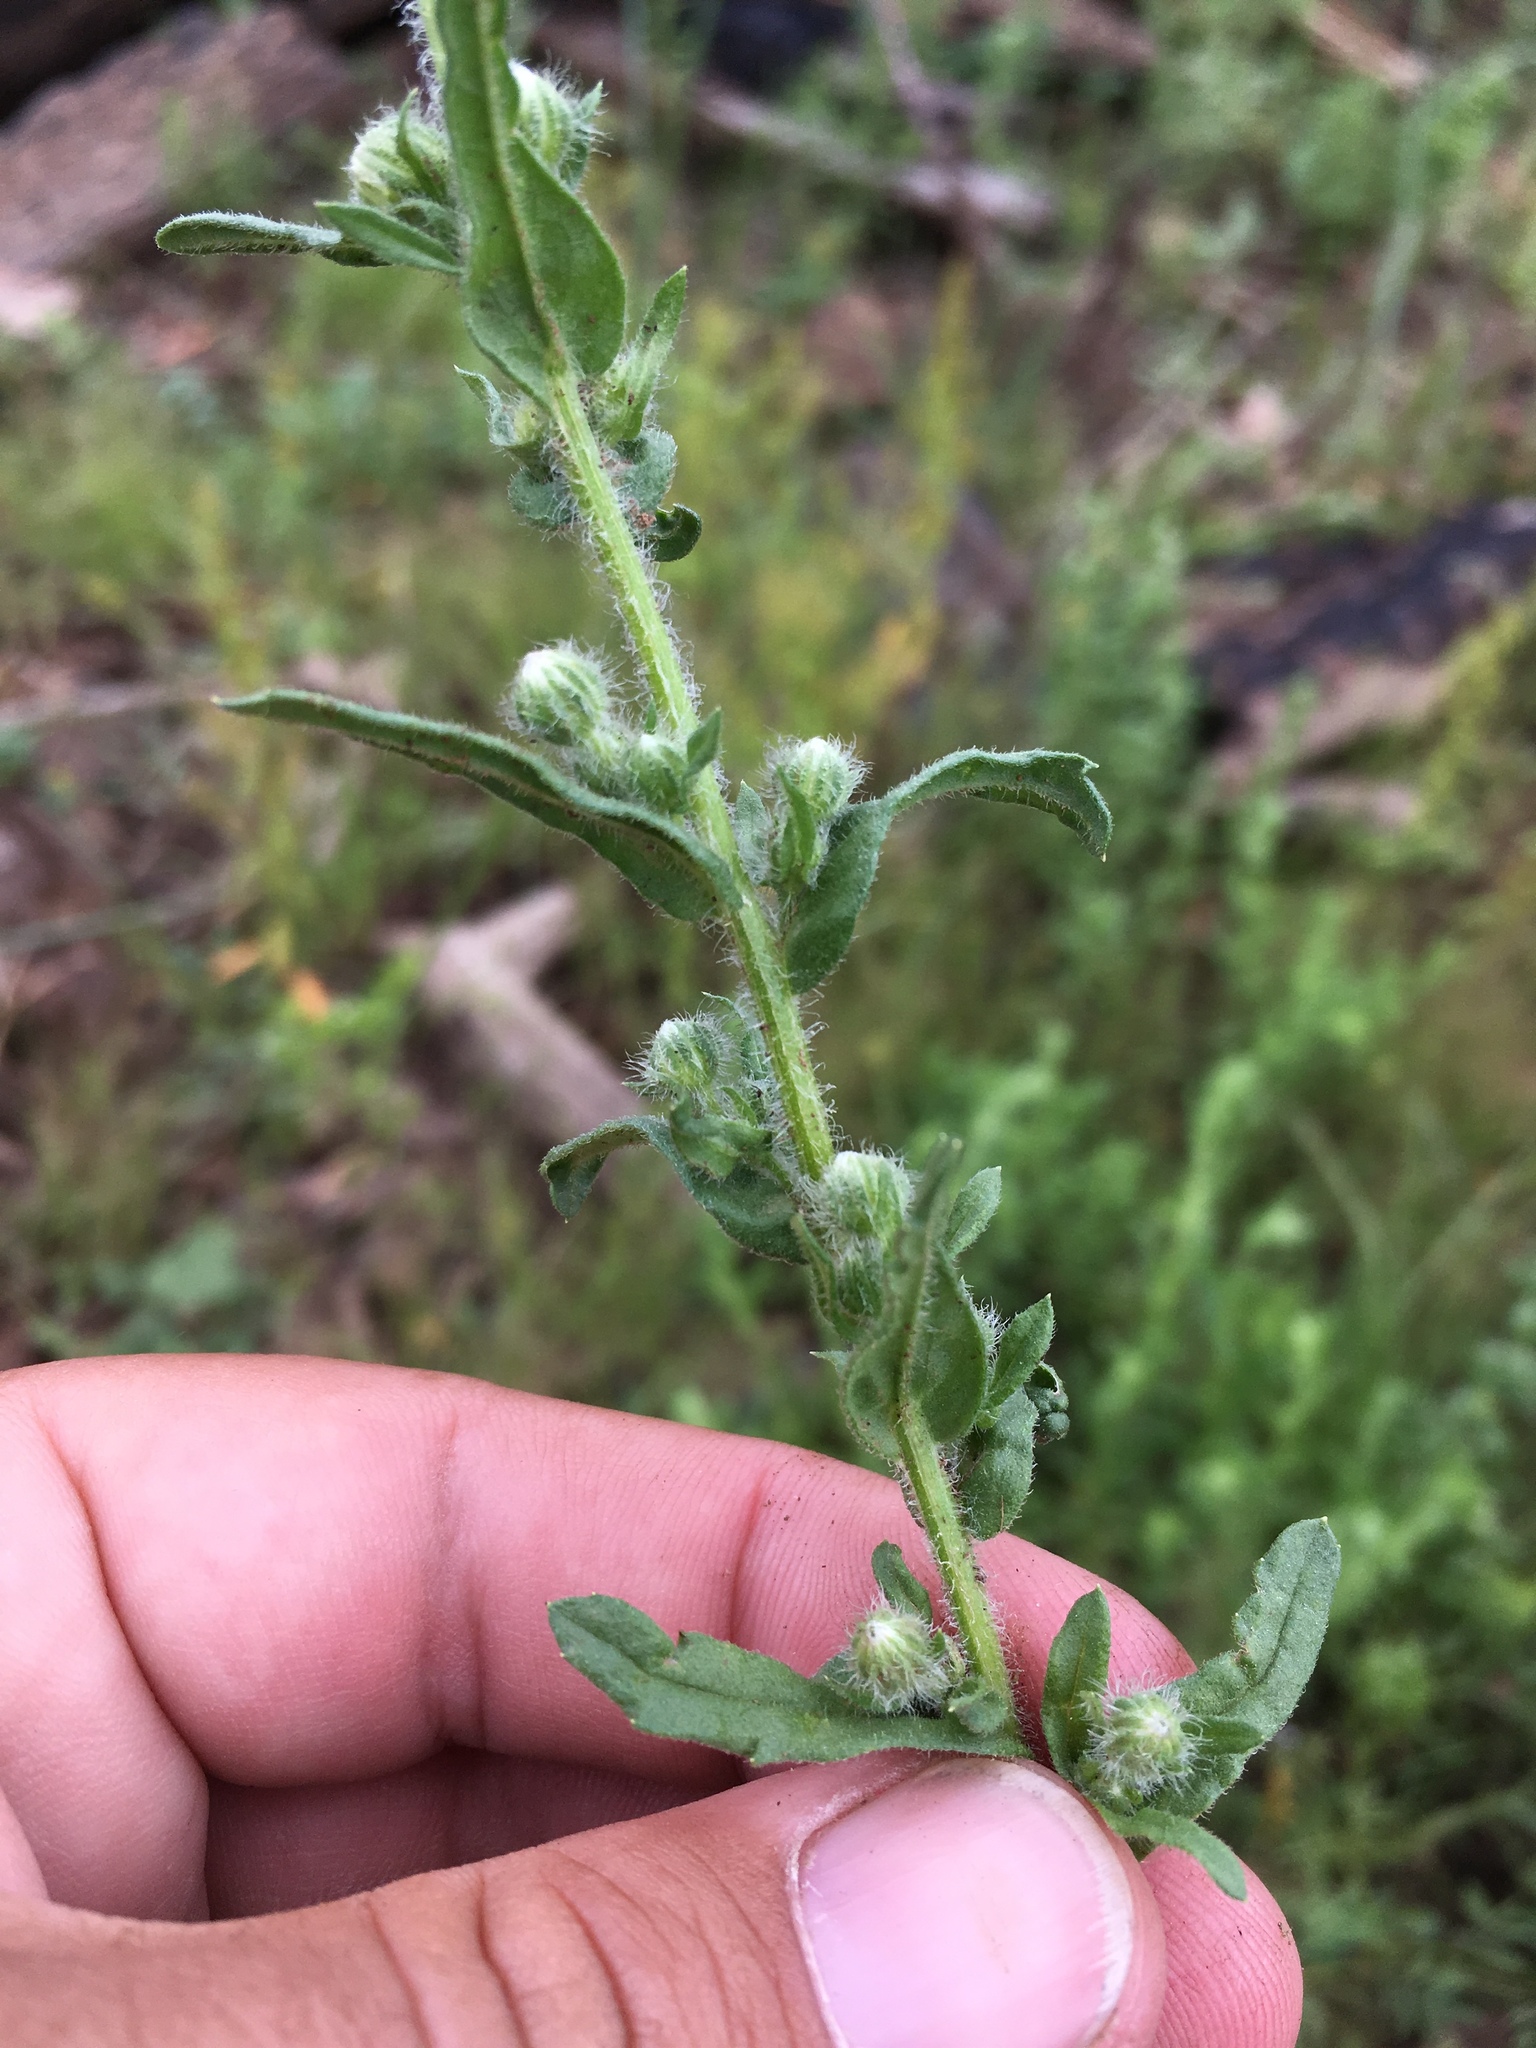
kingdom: Plantae
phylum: Tracheophyta
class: Magnoliopsida
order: Asterales
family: Asteraceae
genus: Laennecia
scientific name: Laennecia schiedeana
